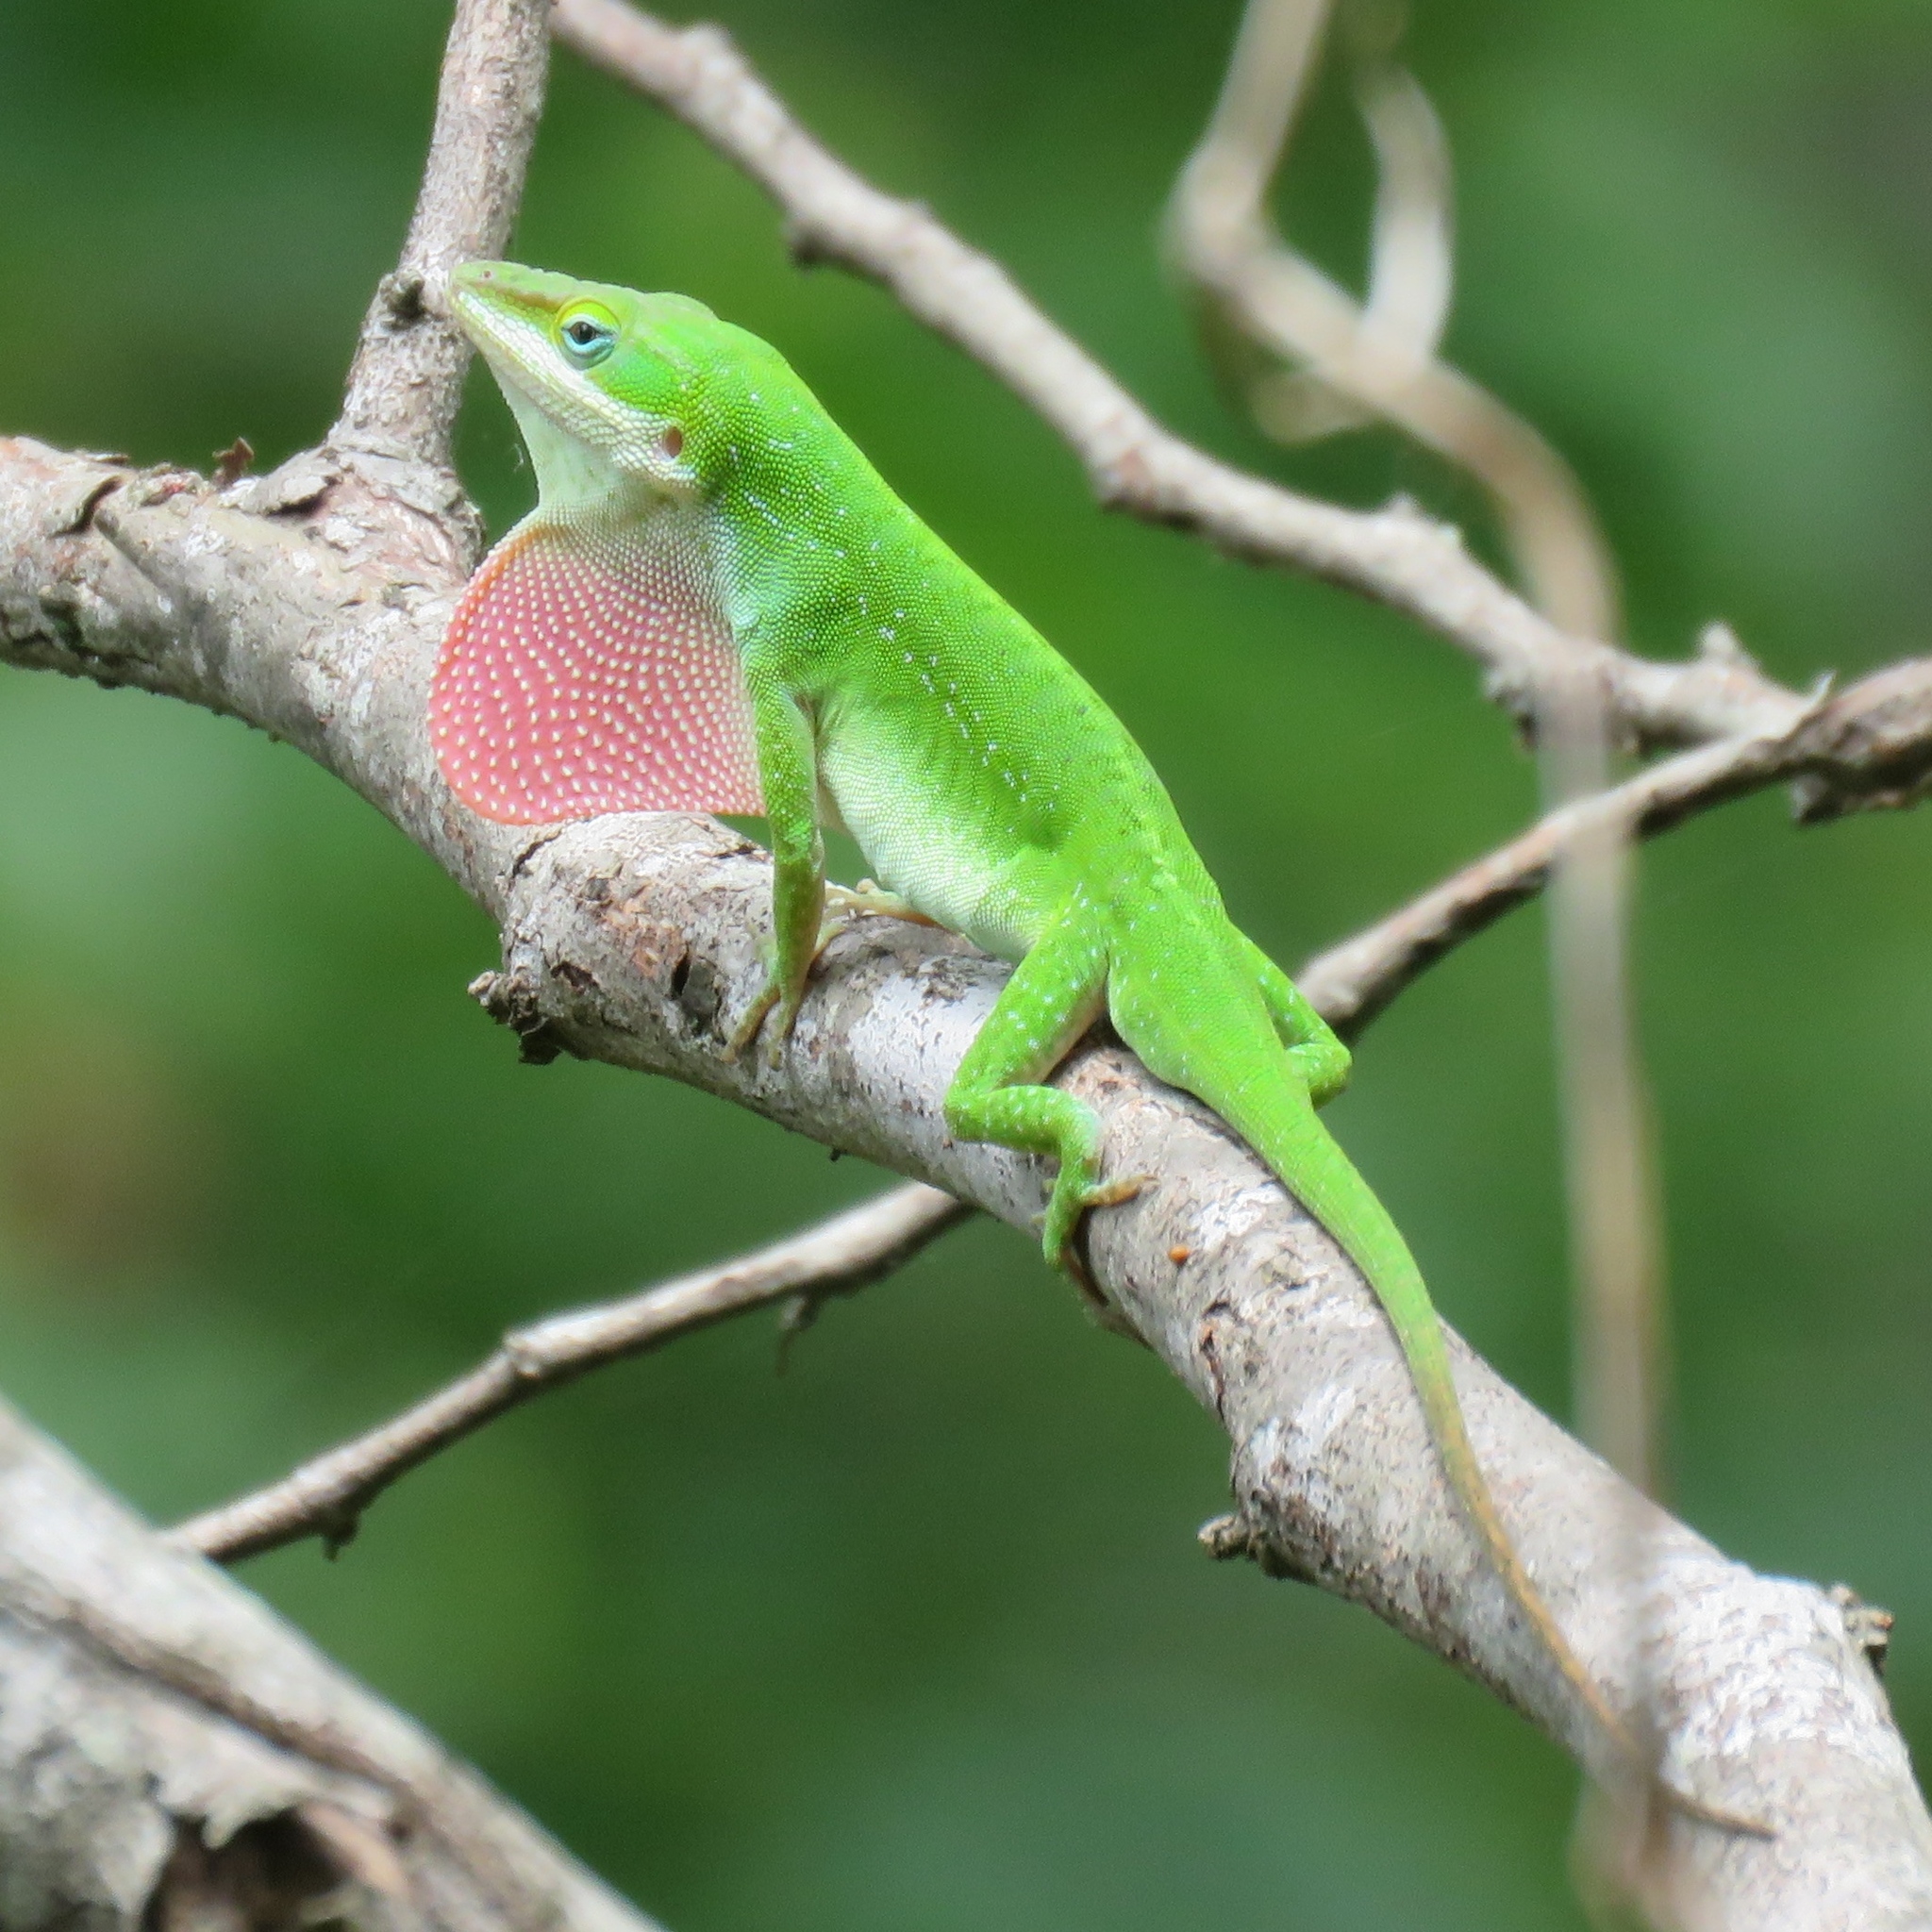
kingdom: Animalia
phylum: Chordata
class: Squamata
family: Dactyloidae
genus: Anolis
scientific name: Anolis carolinensis
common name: Green anole
